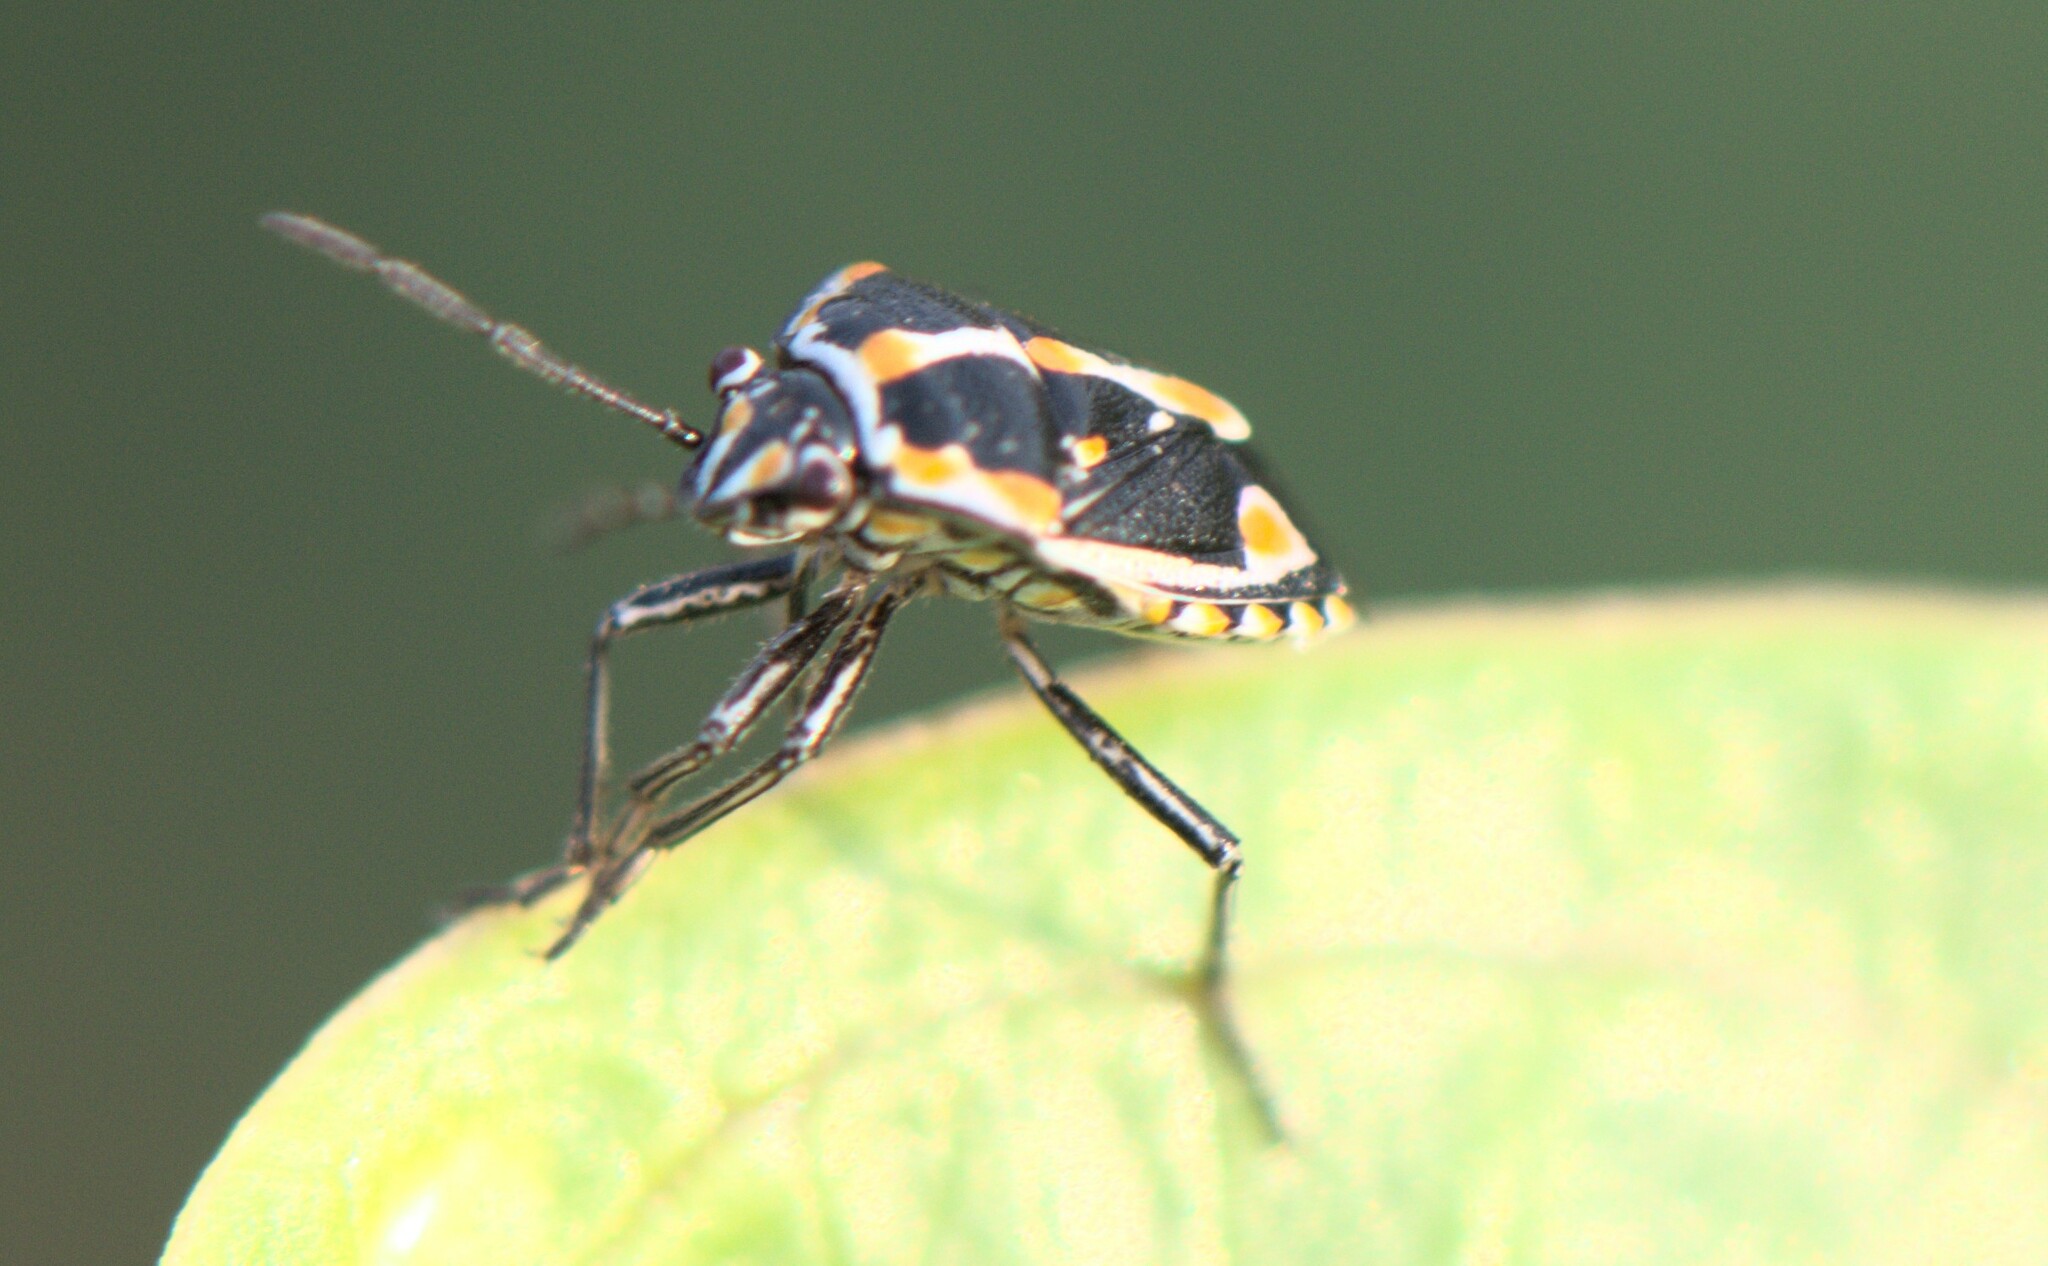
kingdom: Animalia
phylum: Arthropoda
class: Insecta
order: Hemiptera
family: Pentatomidae
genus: Bagrada
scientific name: Bagrada hilaris
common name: Bagrada bug
